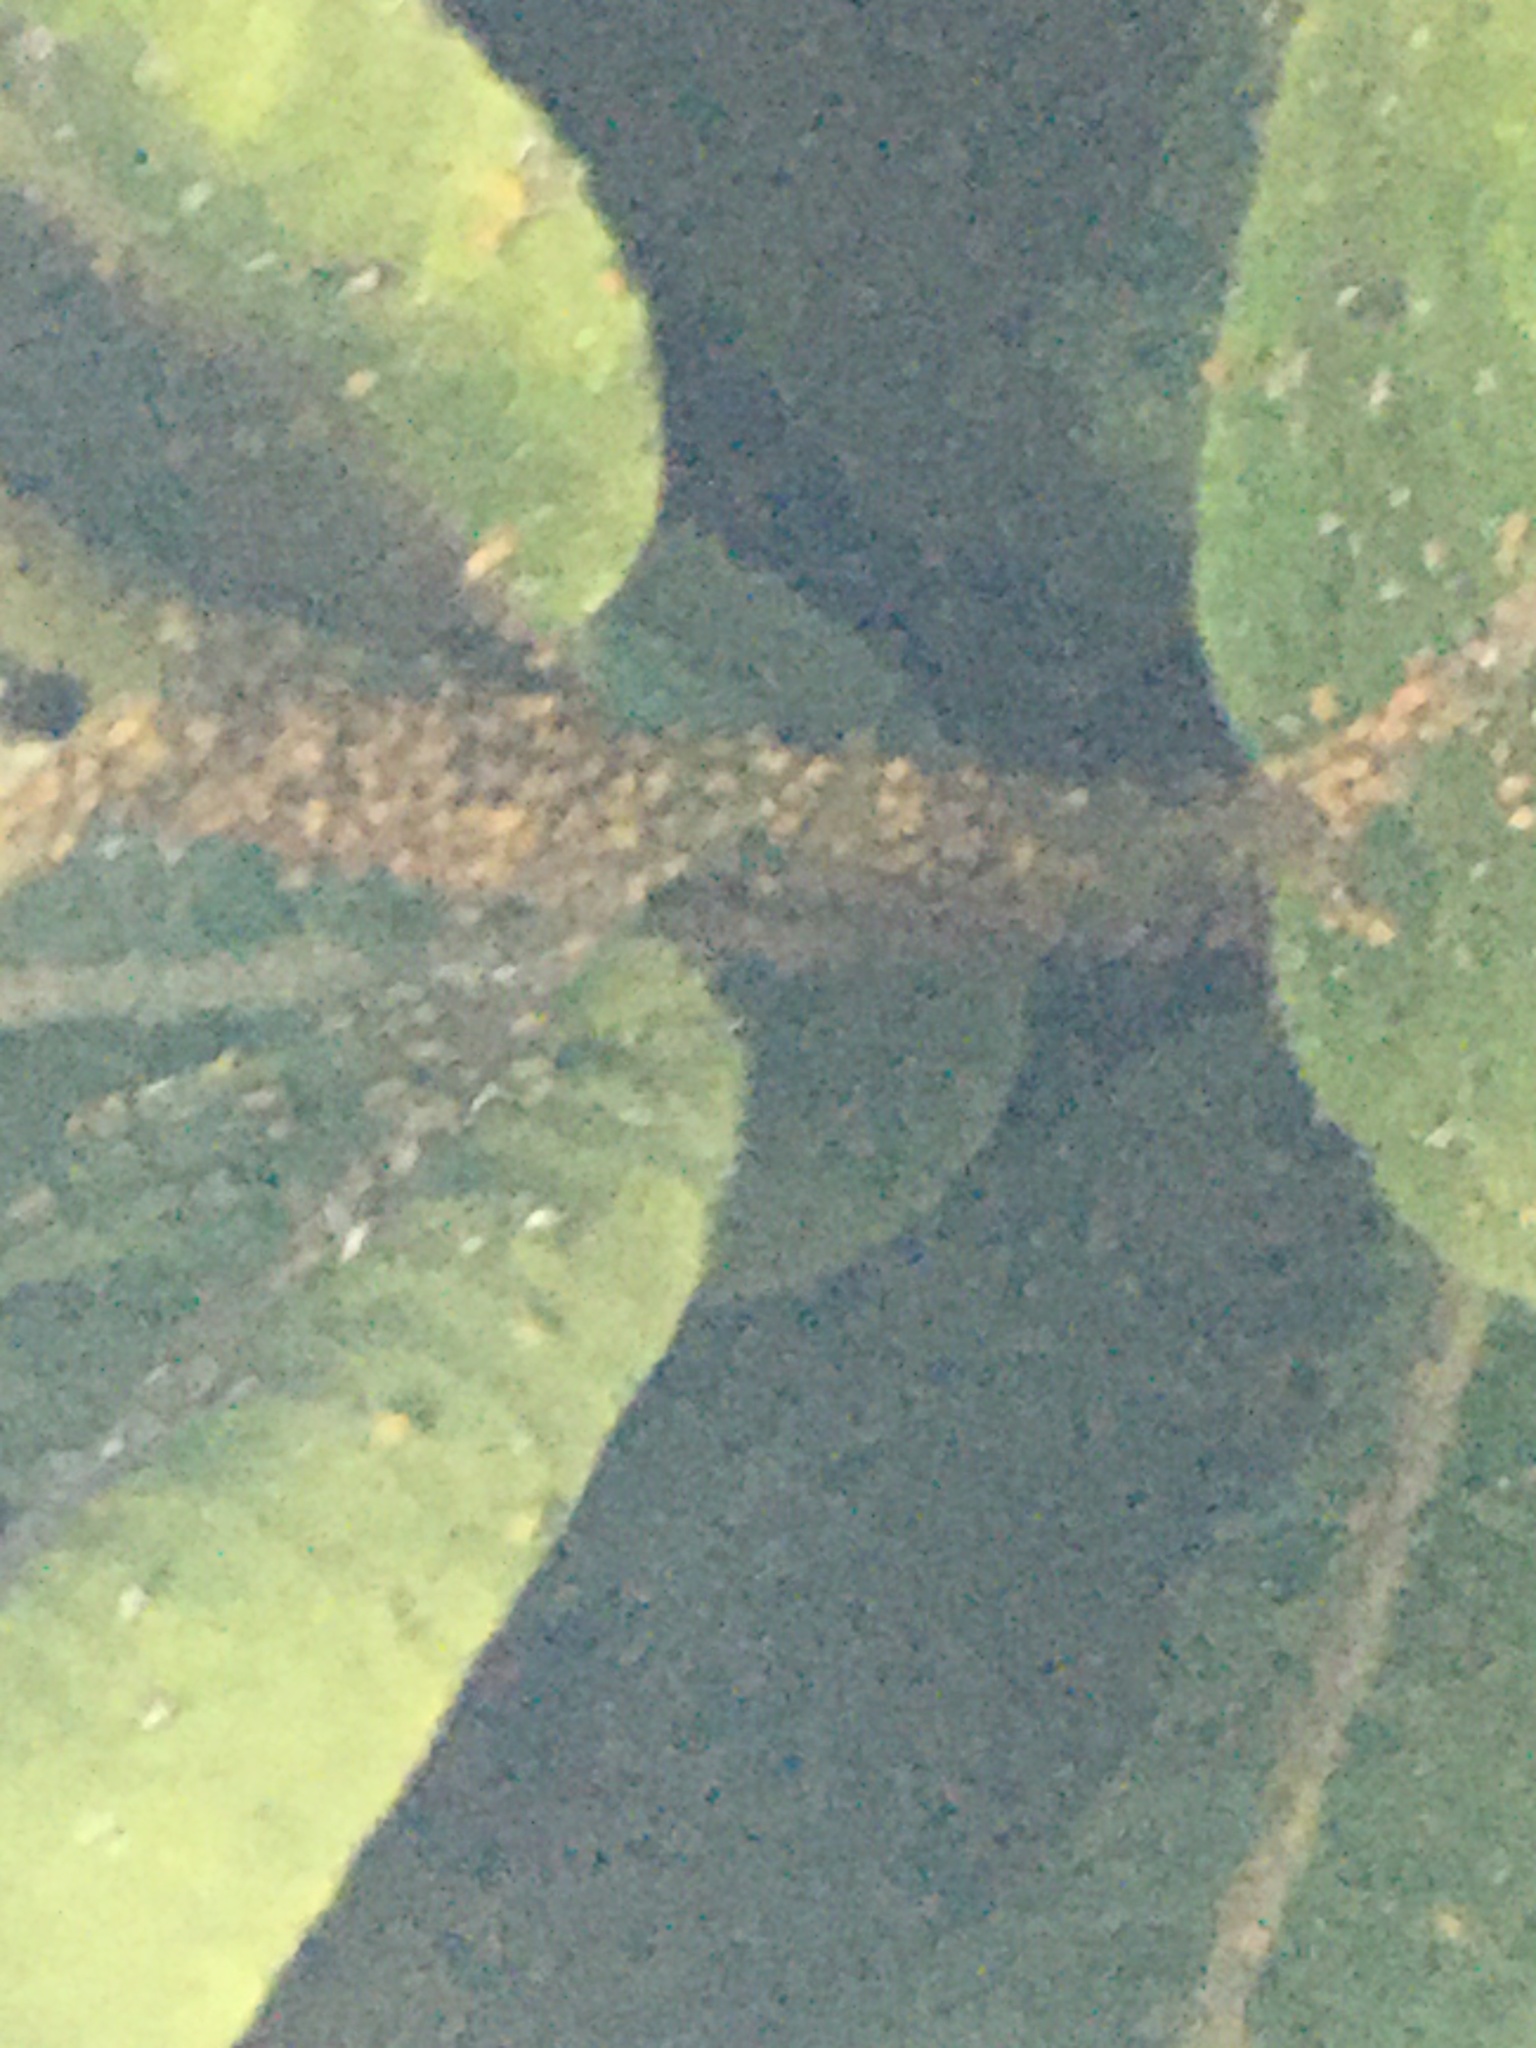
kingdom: Animalia
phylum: Arthropoda
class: Insecta
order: Hemiptera
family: Aphididae
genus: Aphis
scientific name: Aphis nerii
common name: Oleander aphid
